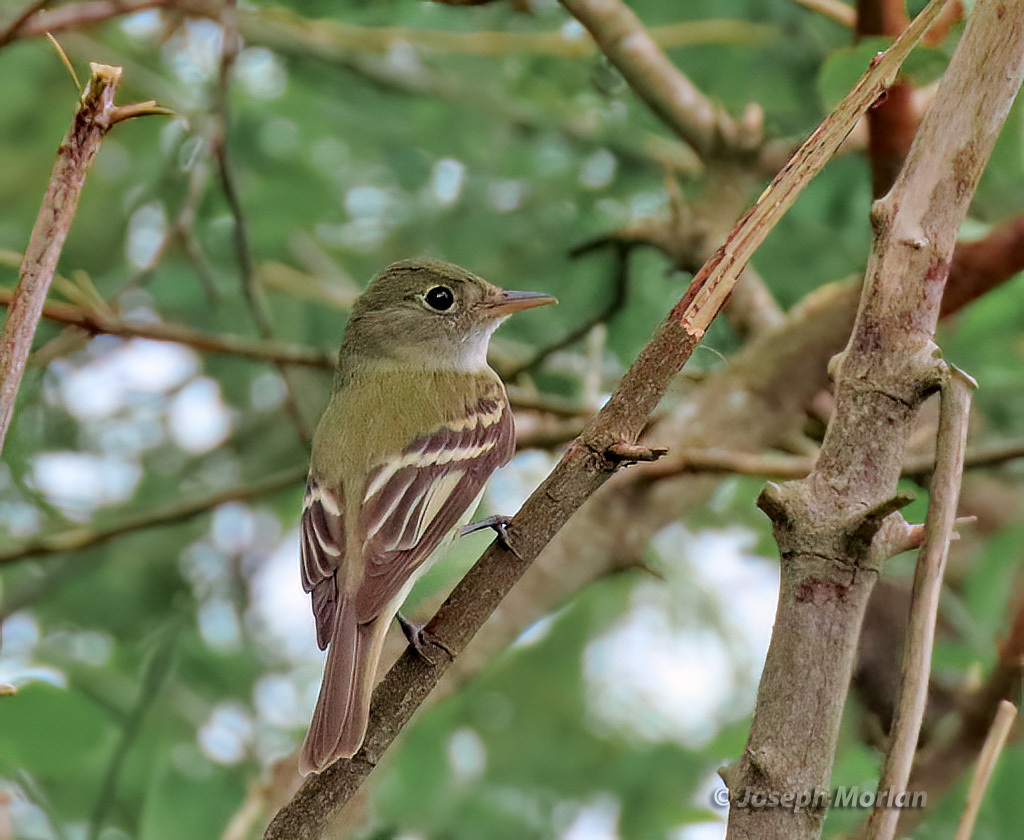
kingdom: Animalia
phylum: Chordata
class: Aves
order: Passeriformes
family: Tyrannidae
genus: Empidonax
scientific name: Empidonax virescens
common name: Acadian flycatcher
